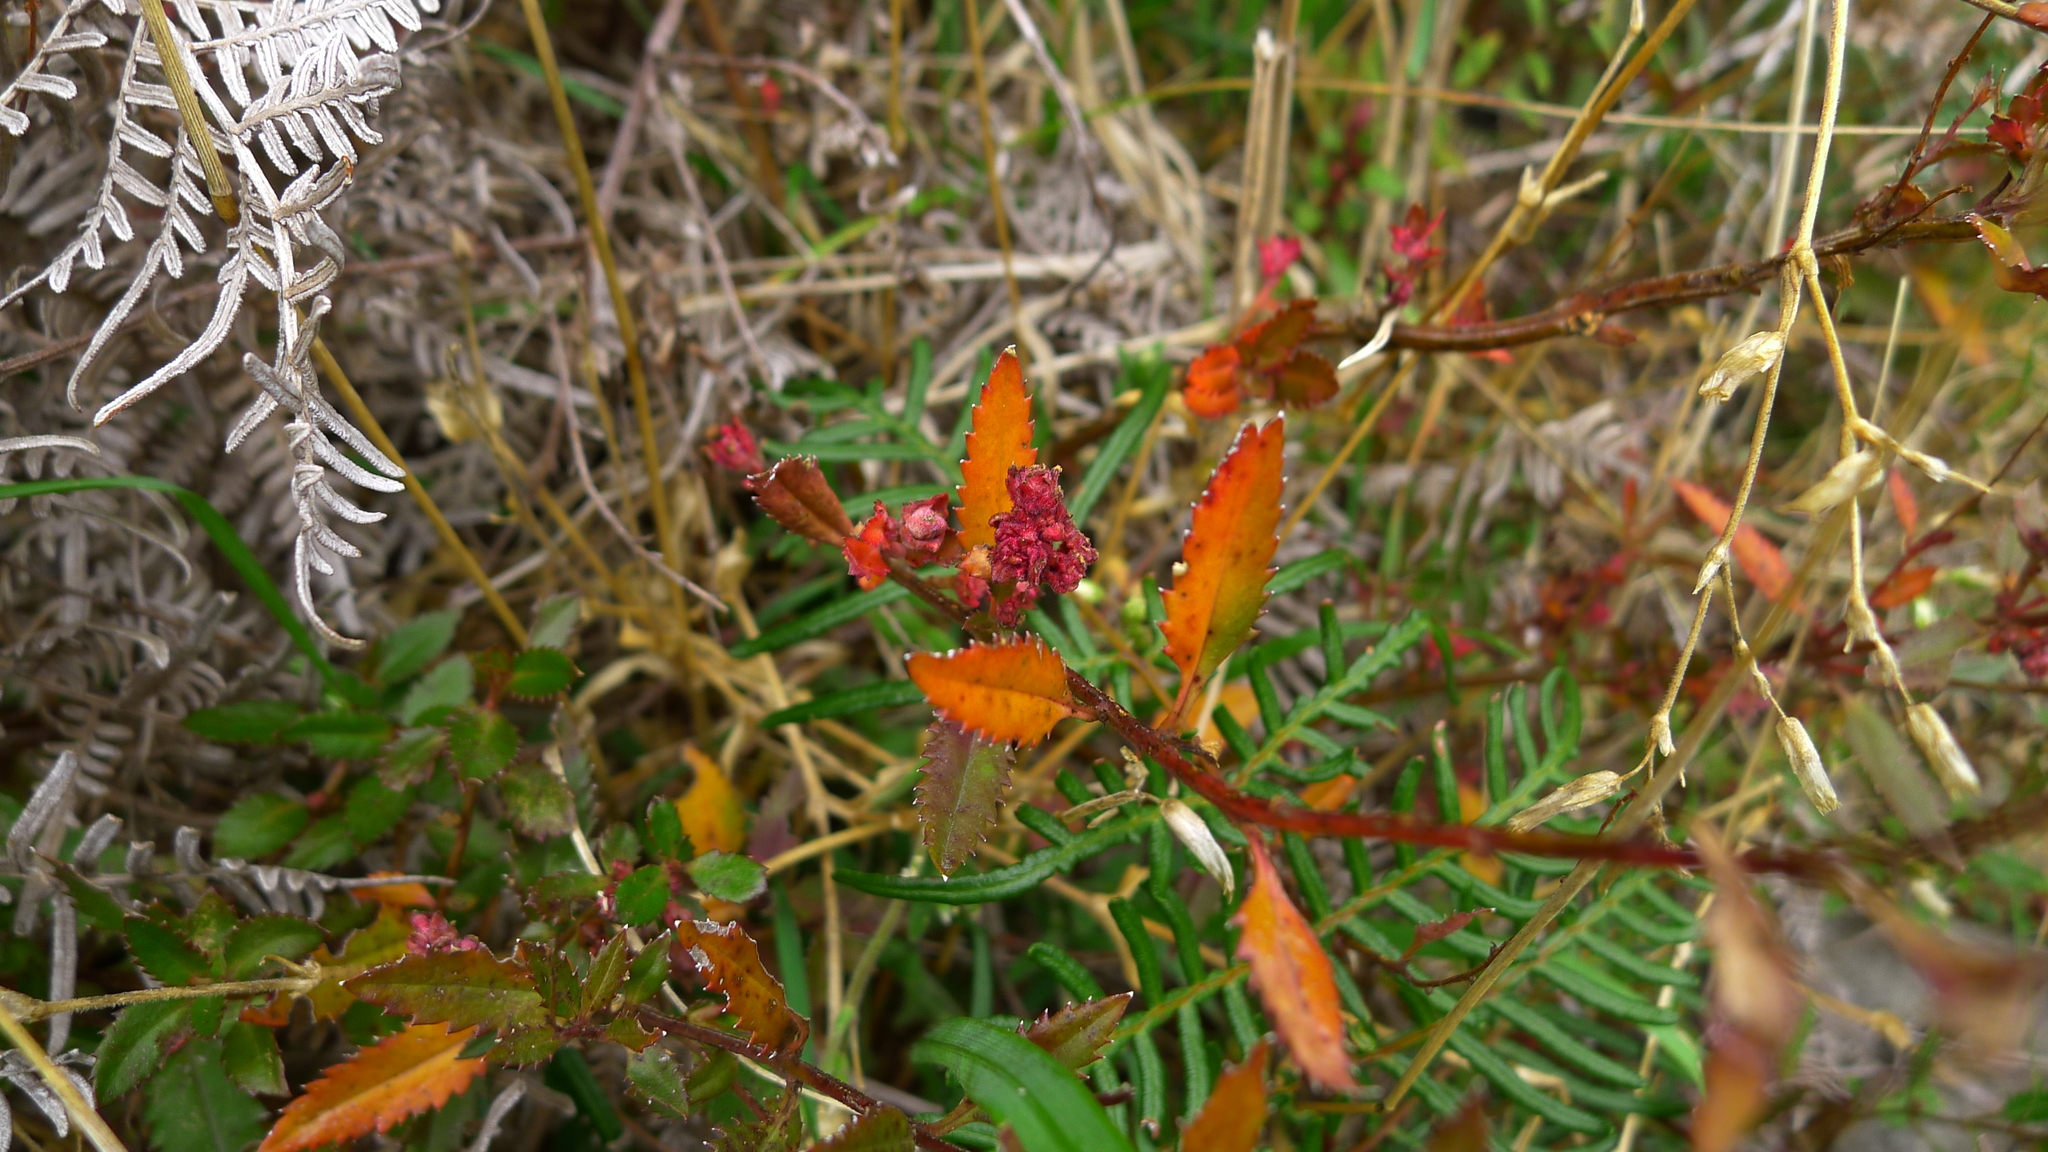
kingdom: Plantae
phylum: Tracheophyta
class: Magnoliopsida
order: Saxifragales
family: Haloragaceae
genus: Haloragis
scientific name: Haloragis erecta
